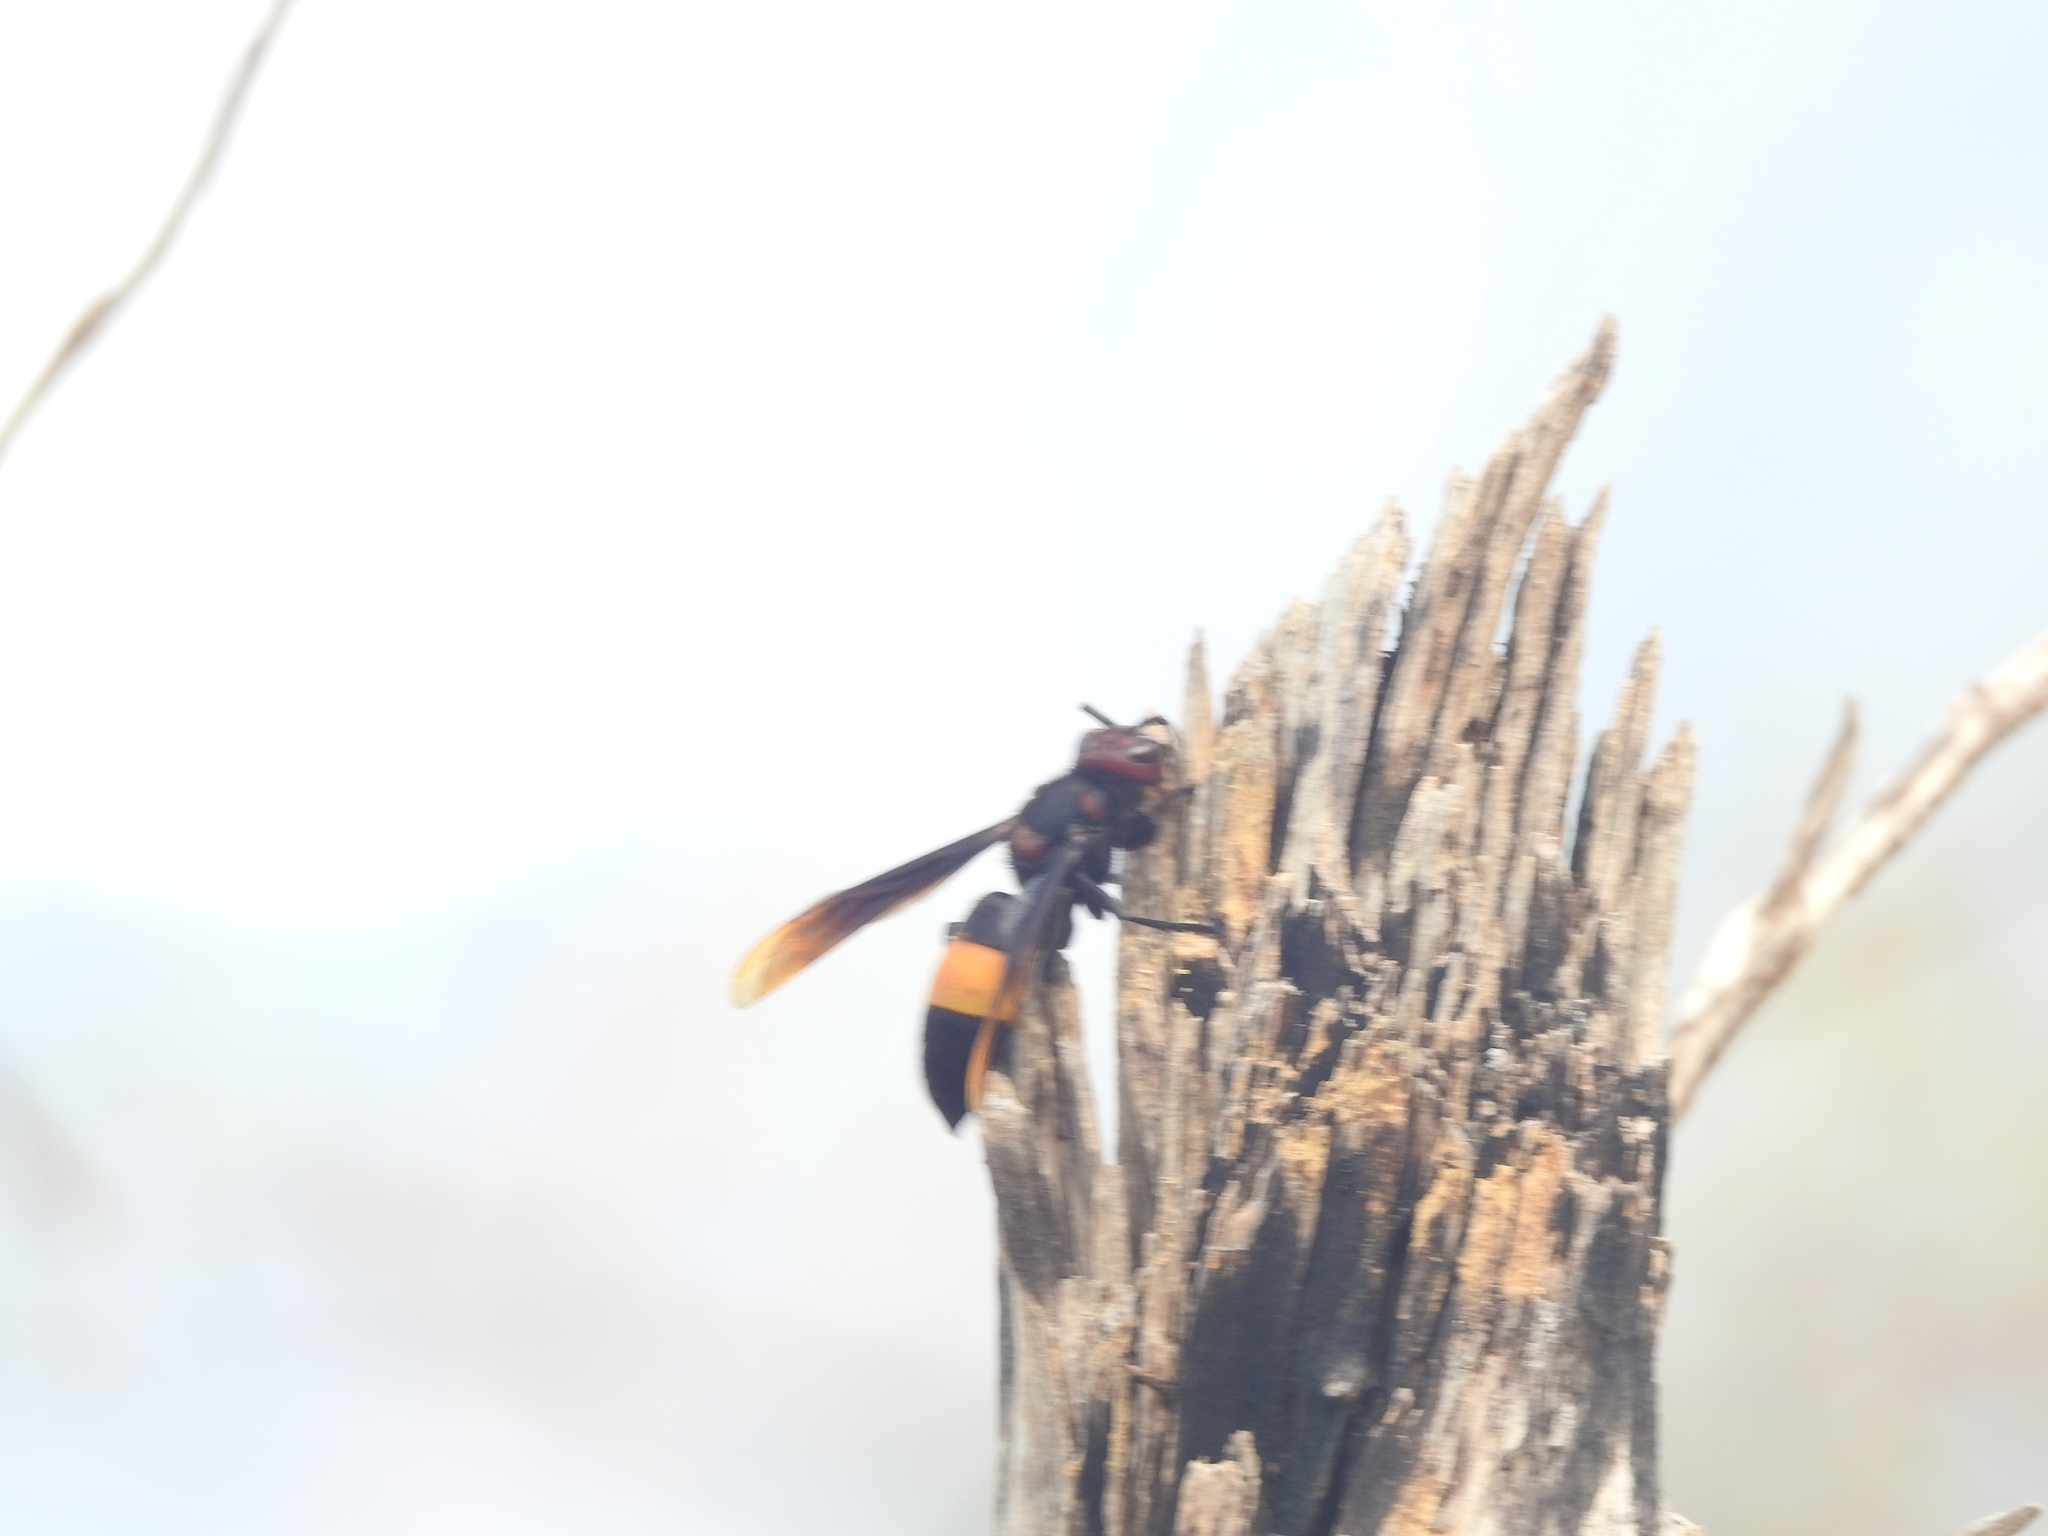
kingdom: Animalia
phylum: Arthropoda
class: Insecta
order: Hymenoptera
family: Vespidae
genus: Vespa
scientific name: Vespa tropica
